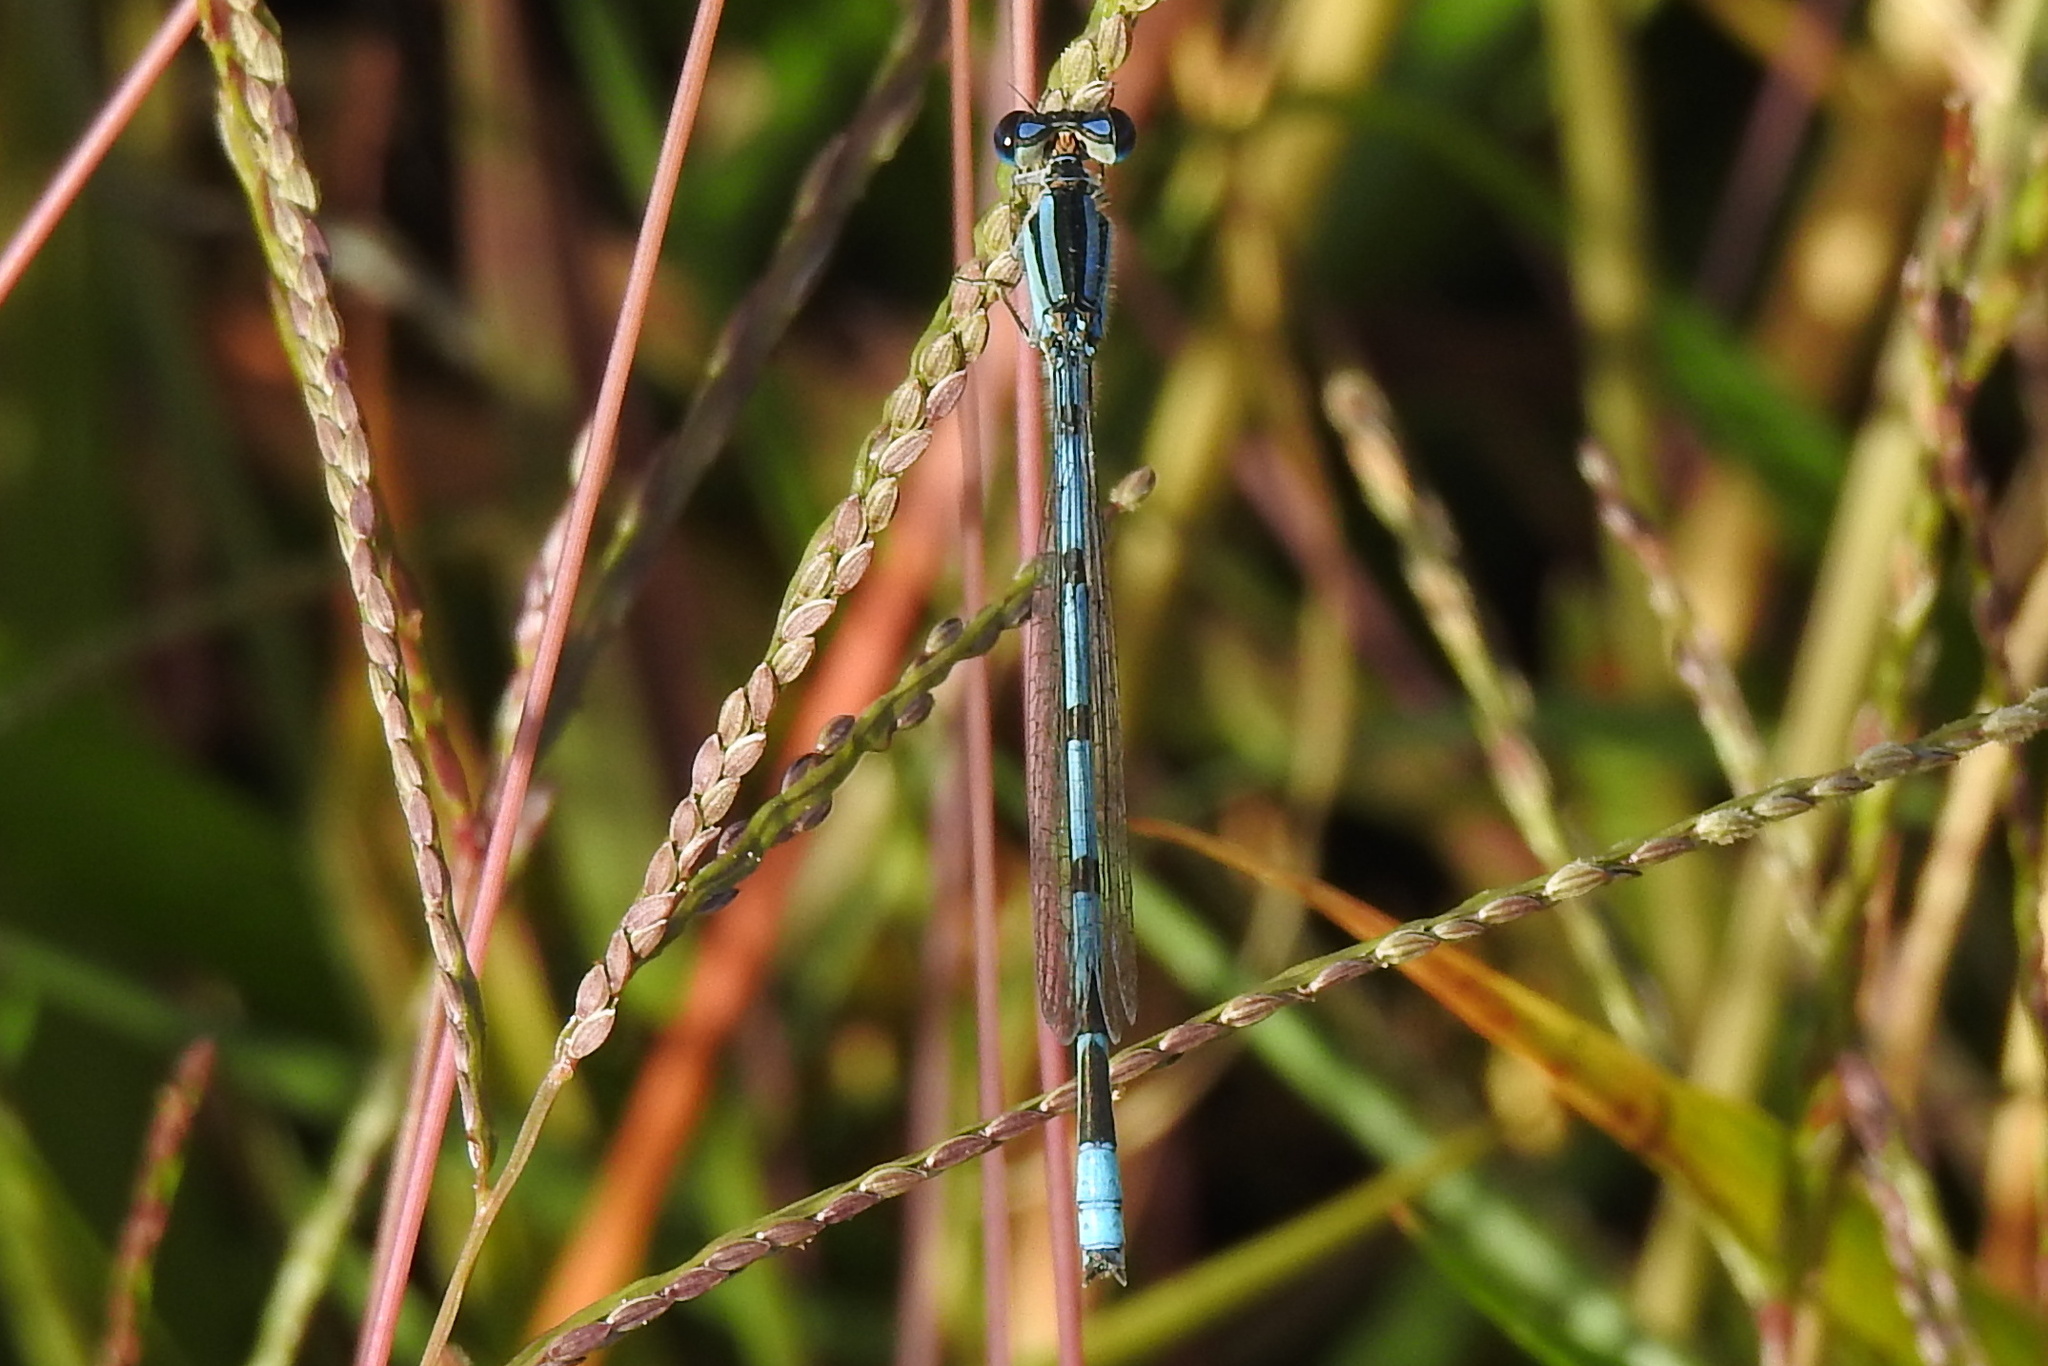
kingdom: Animalia
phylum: Arthropoda
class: Insecta
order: Odonata
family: Coenagrionidae
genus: Enallagma
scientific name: Enallagma civile
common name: Damselfly
